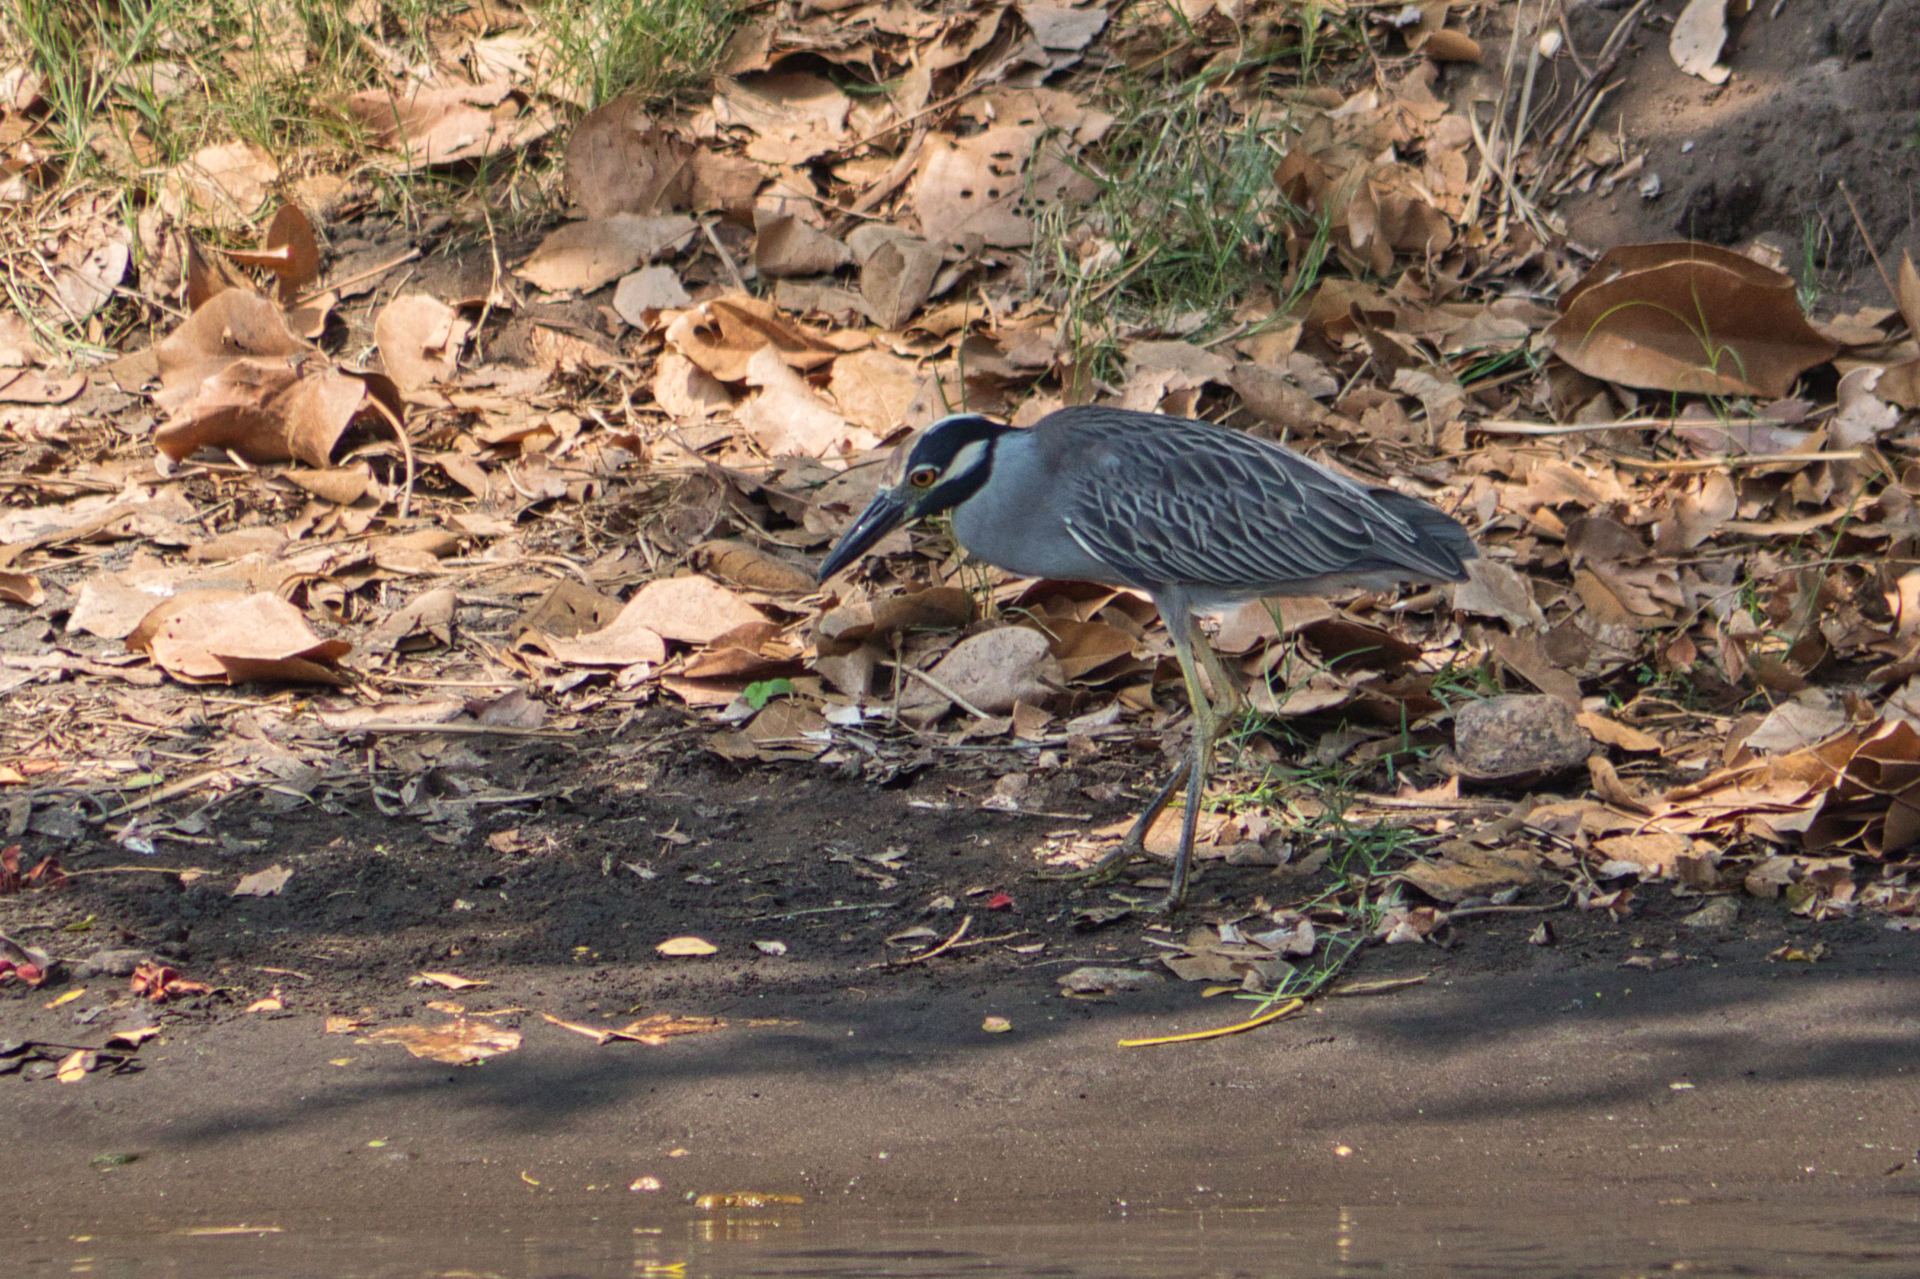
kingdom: Animalia
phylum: Chordata
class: Aves
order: Pelecaniformes
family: Ardeidae
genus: Nyctanassa
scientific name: Nyctanassa violacea
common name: Yellow-crowned night heron
